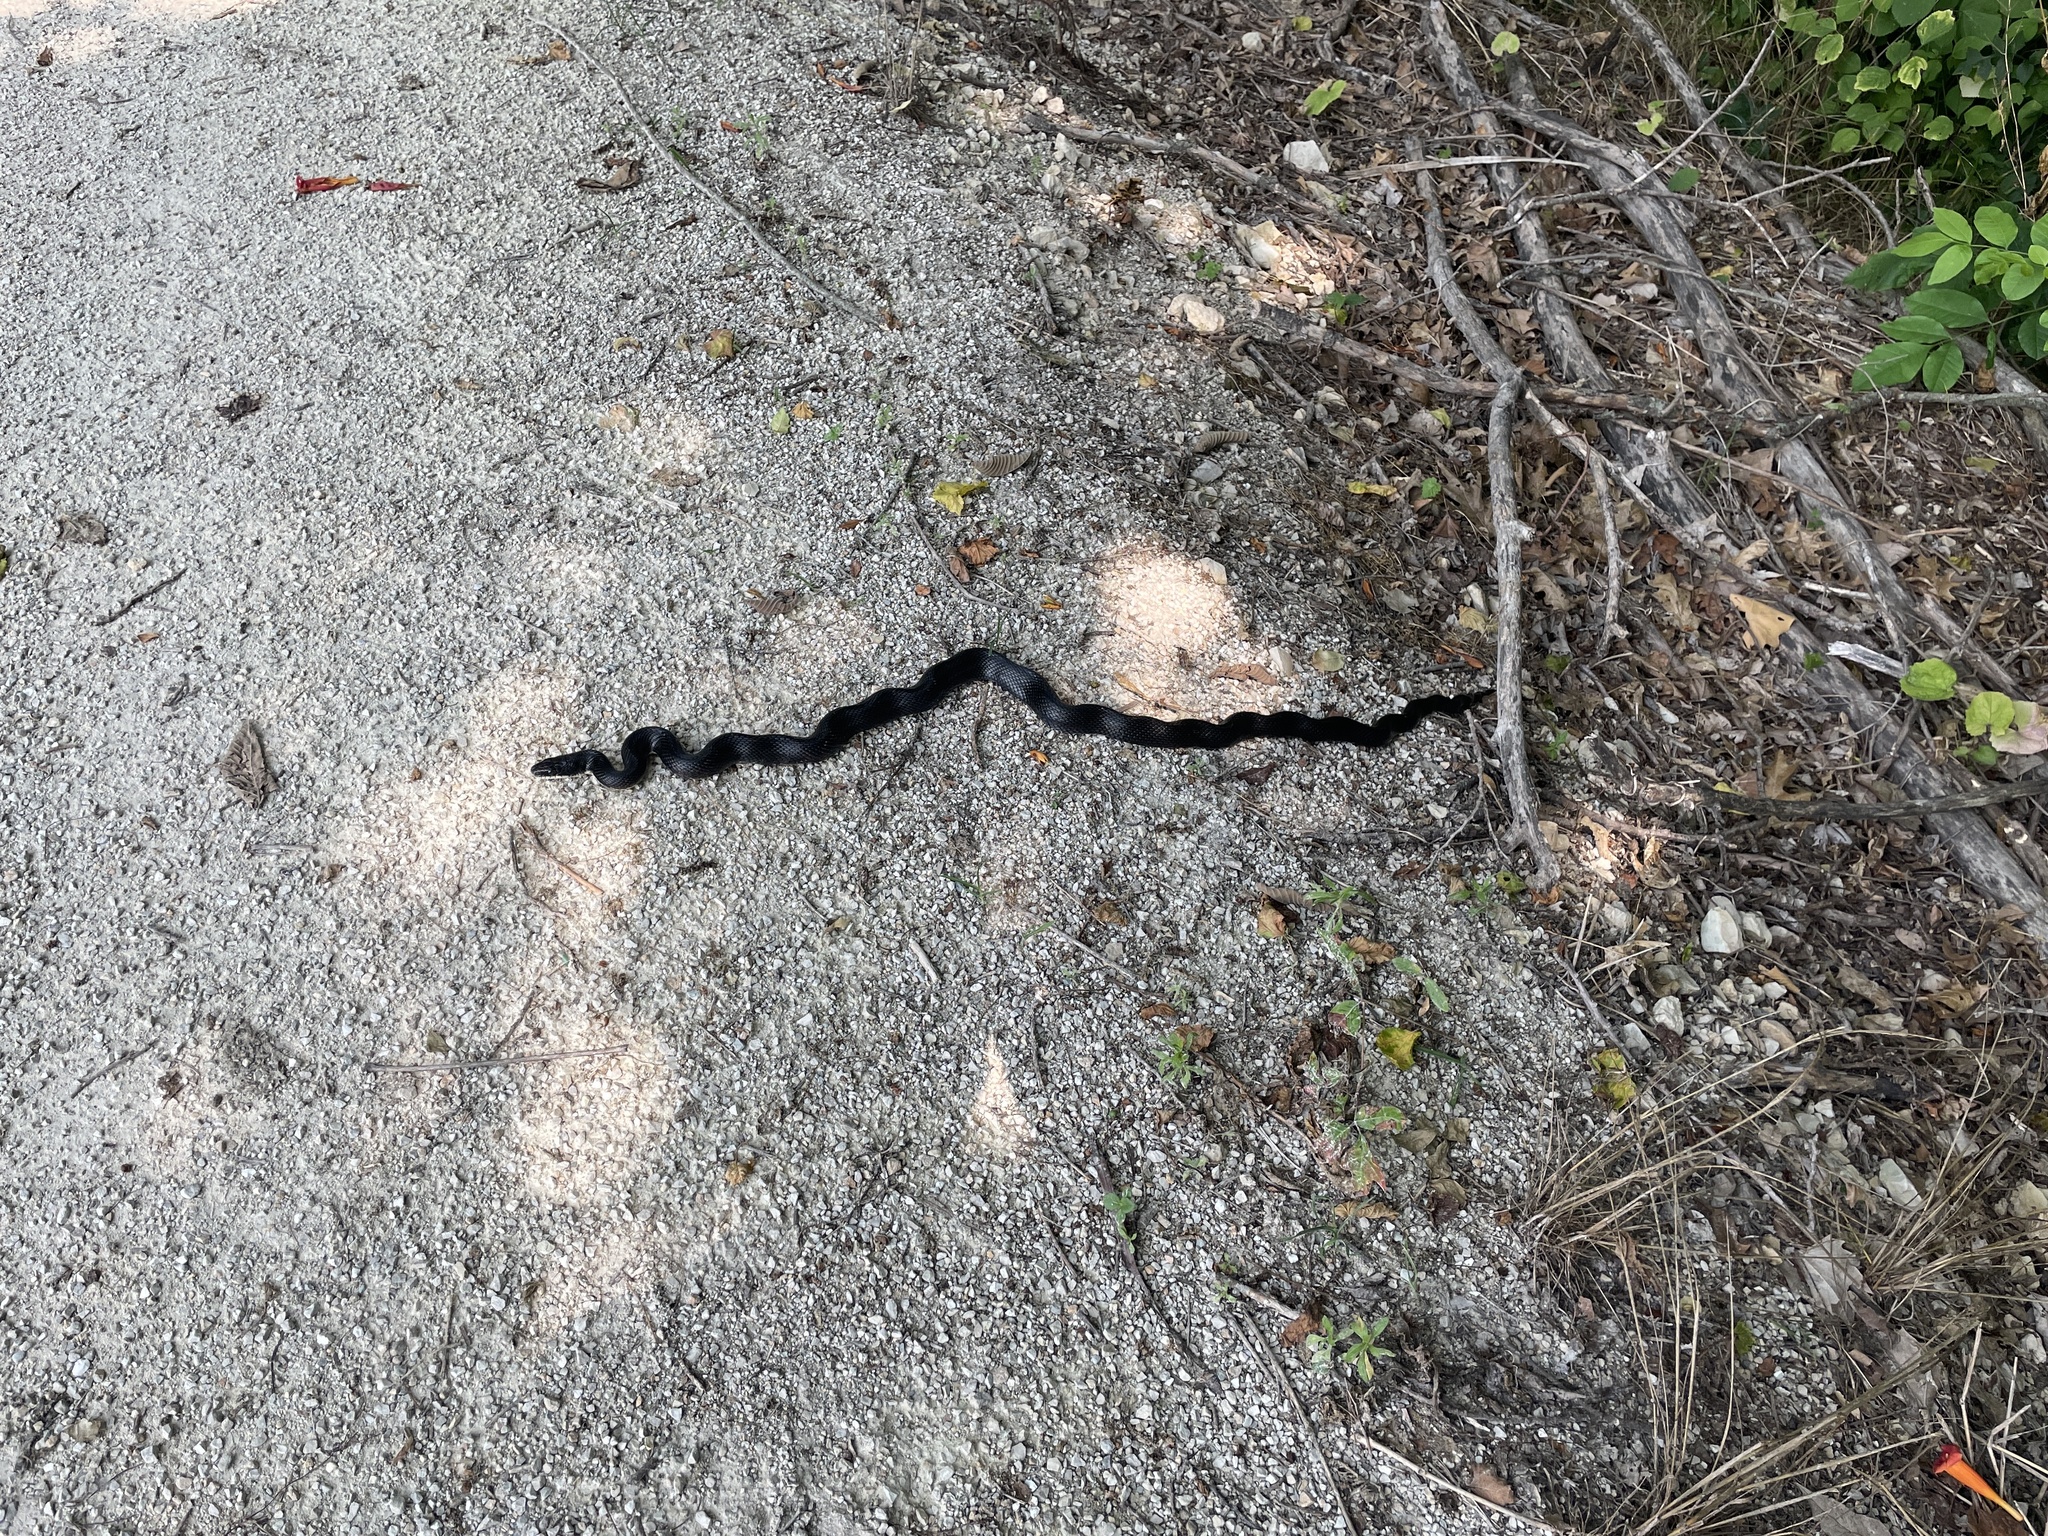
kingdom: Animalia
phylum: Chordata
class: Squamata
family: Colubridae
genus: Pantherophis
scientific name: Pantherophis obsoletus
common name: Black rat snake
